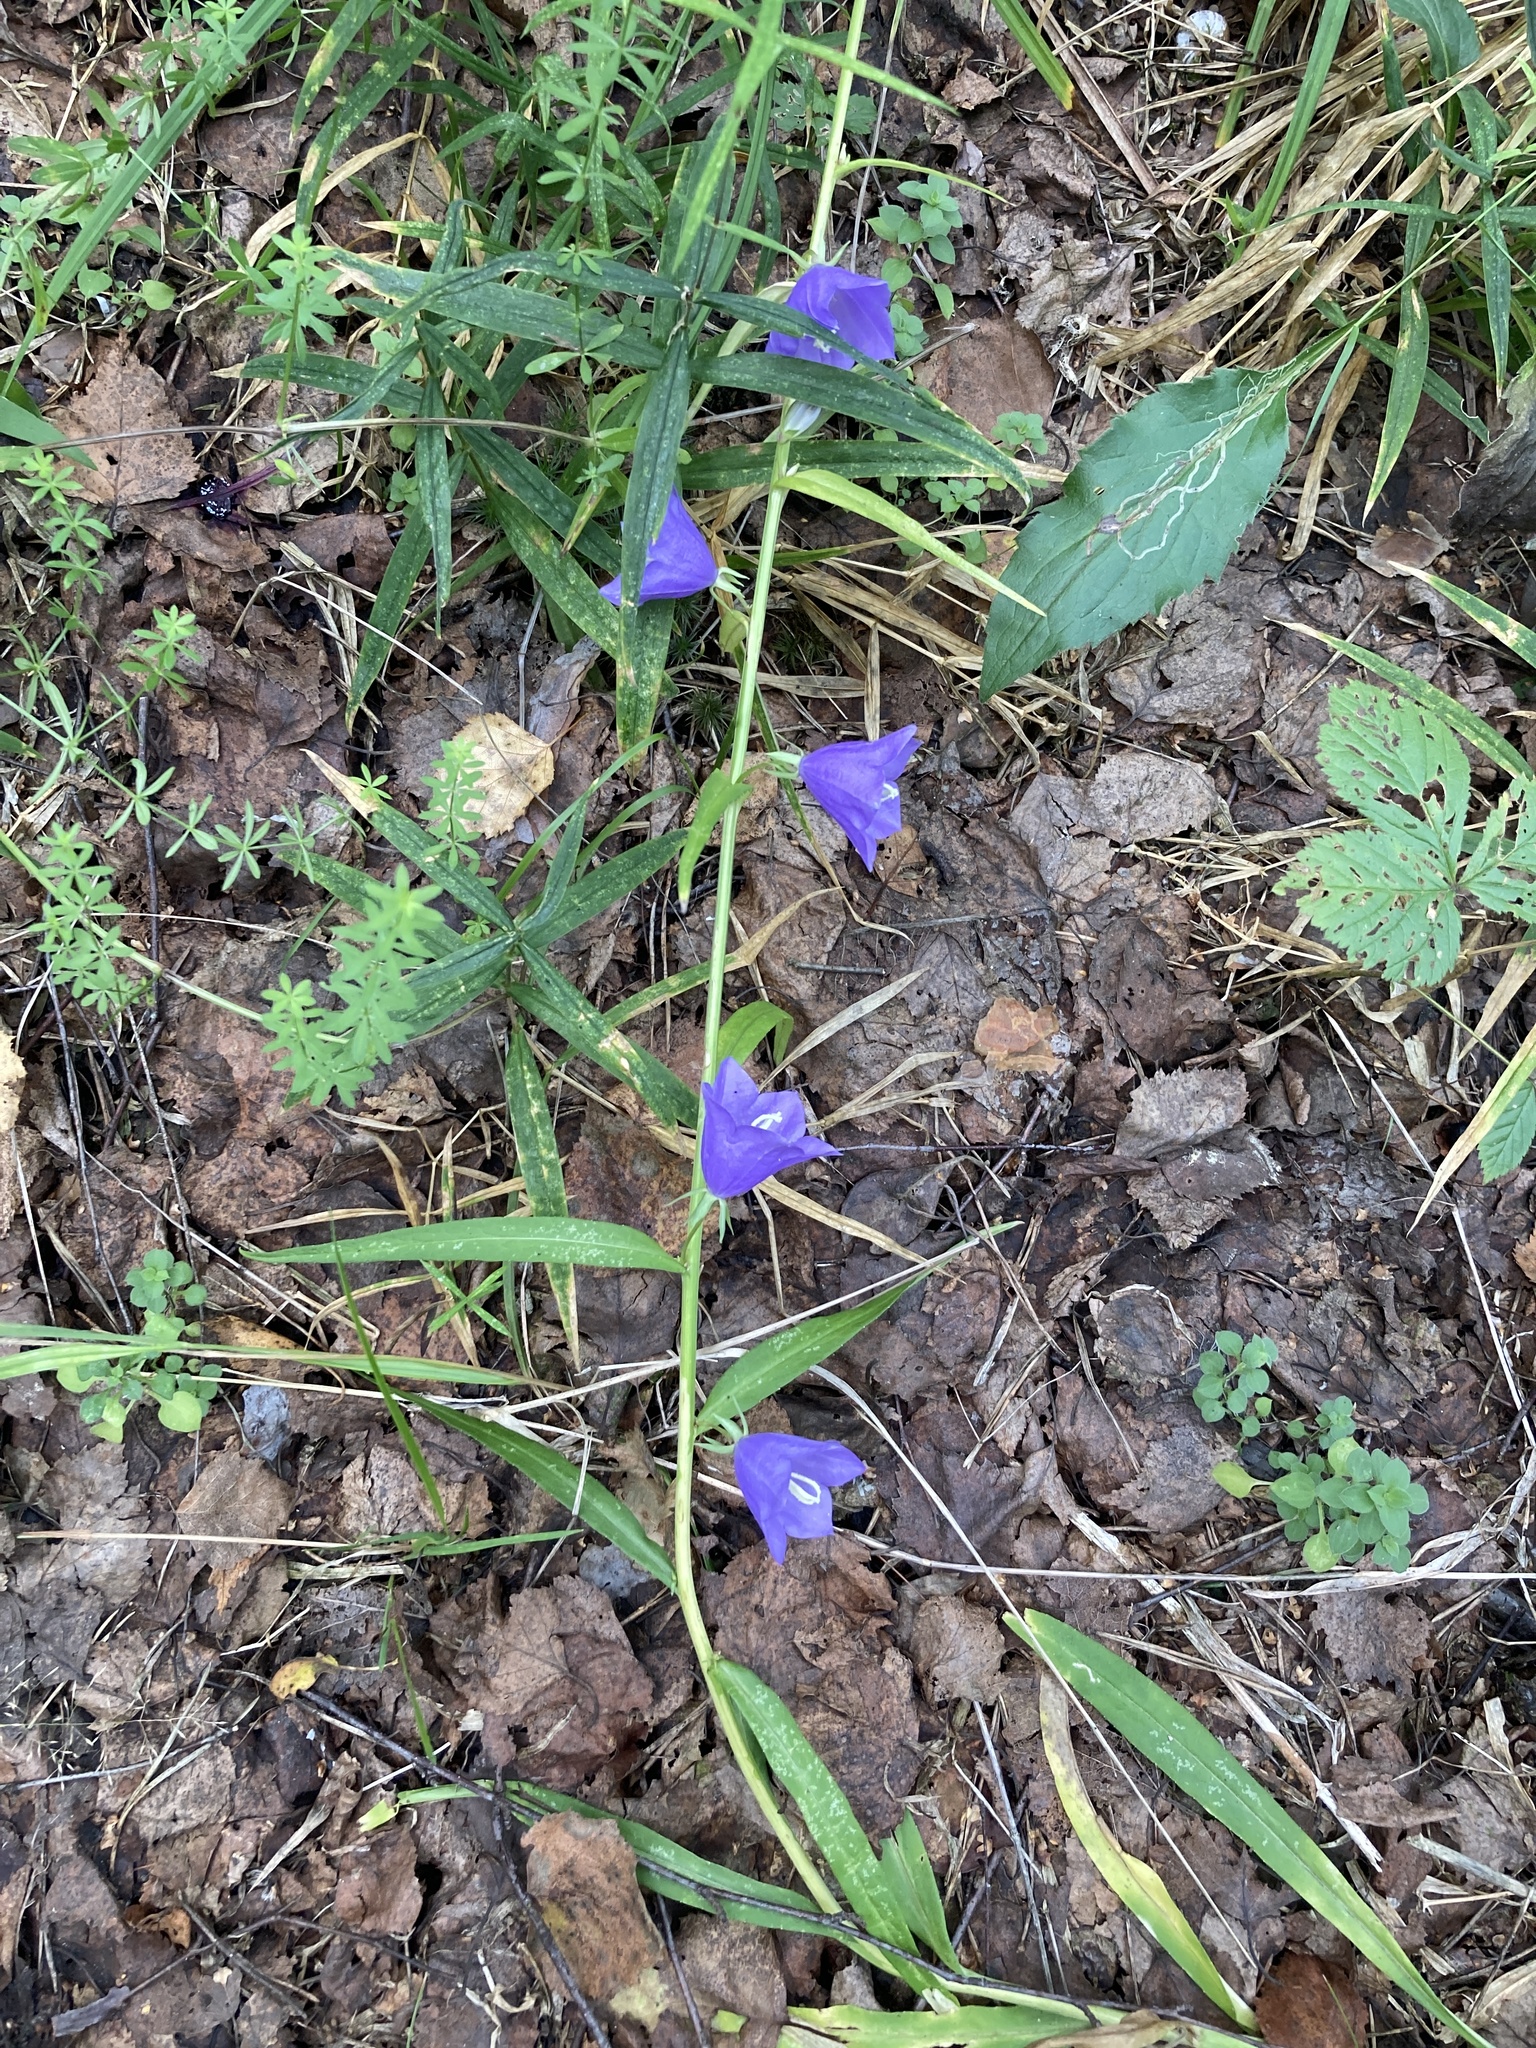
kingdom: Plantae
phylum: Tracheophyta
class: Magnoliopsida
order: Asterales
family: Campanulaceae
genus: Campanula
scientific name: Campanula persicifolia
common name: Peach-leaved bellflower
